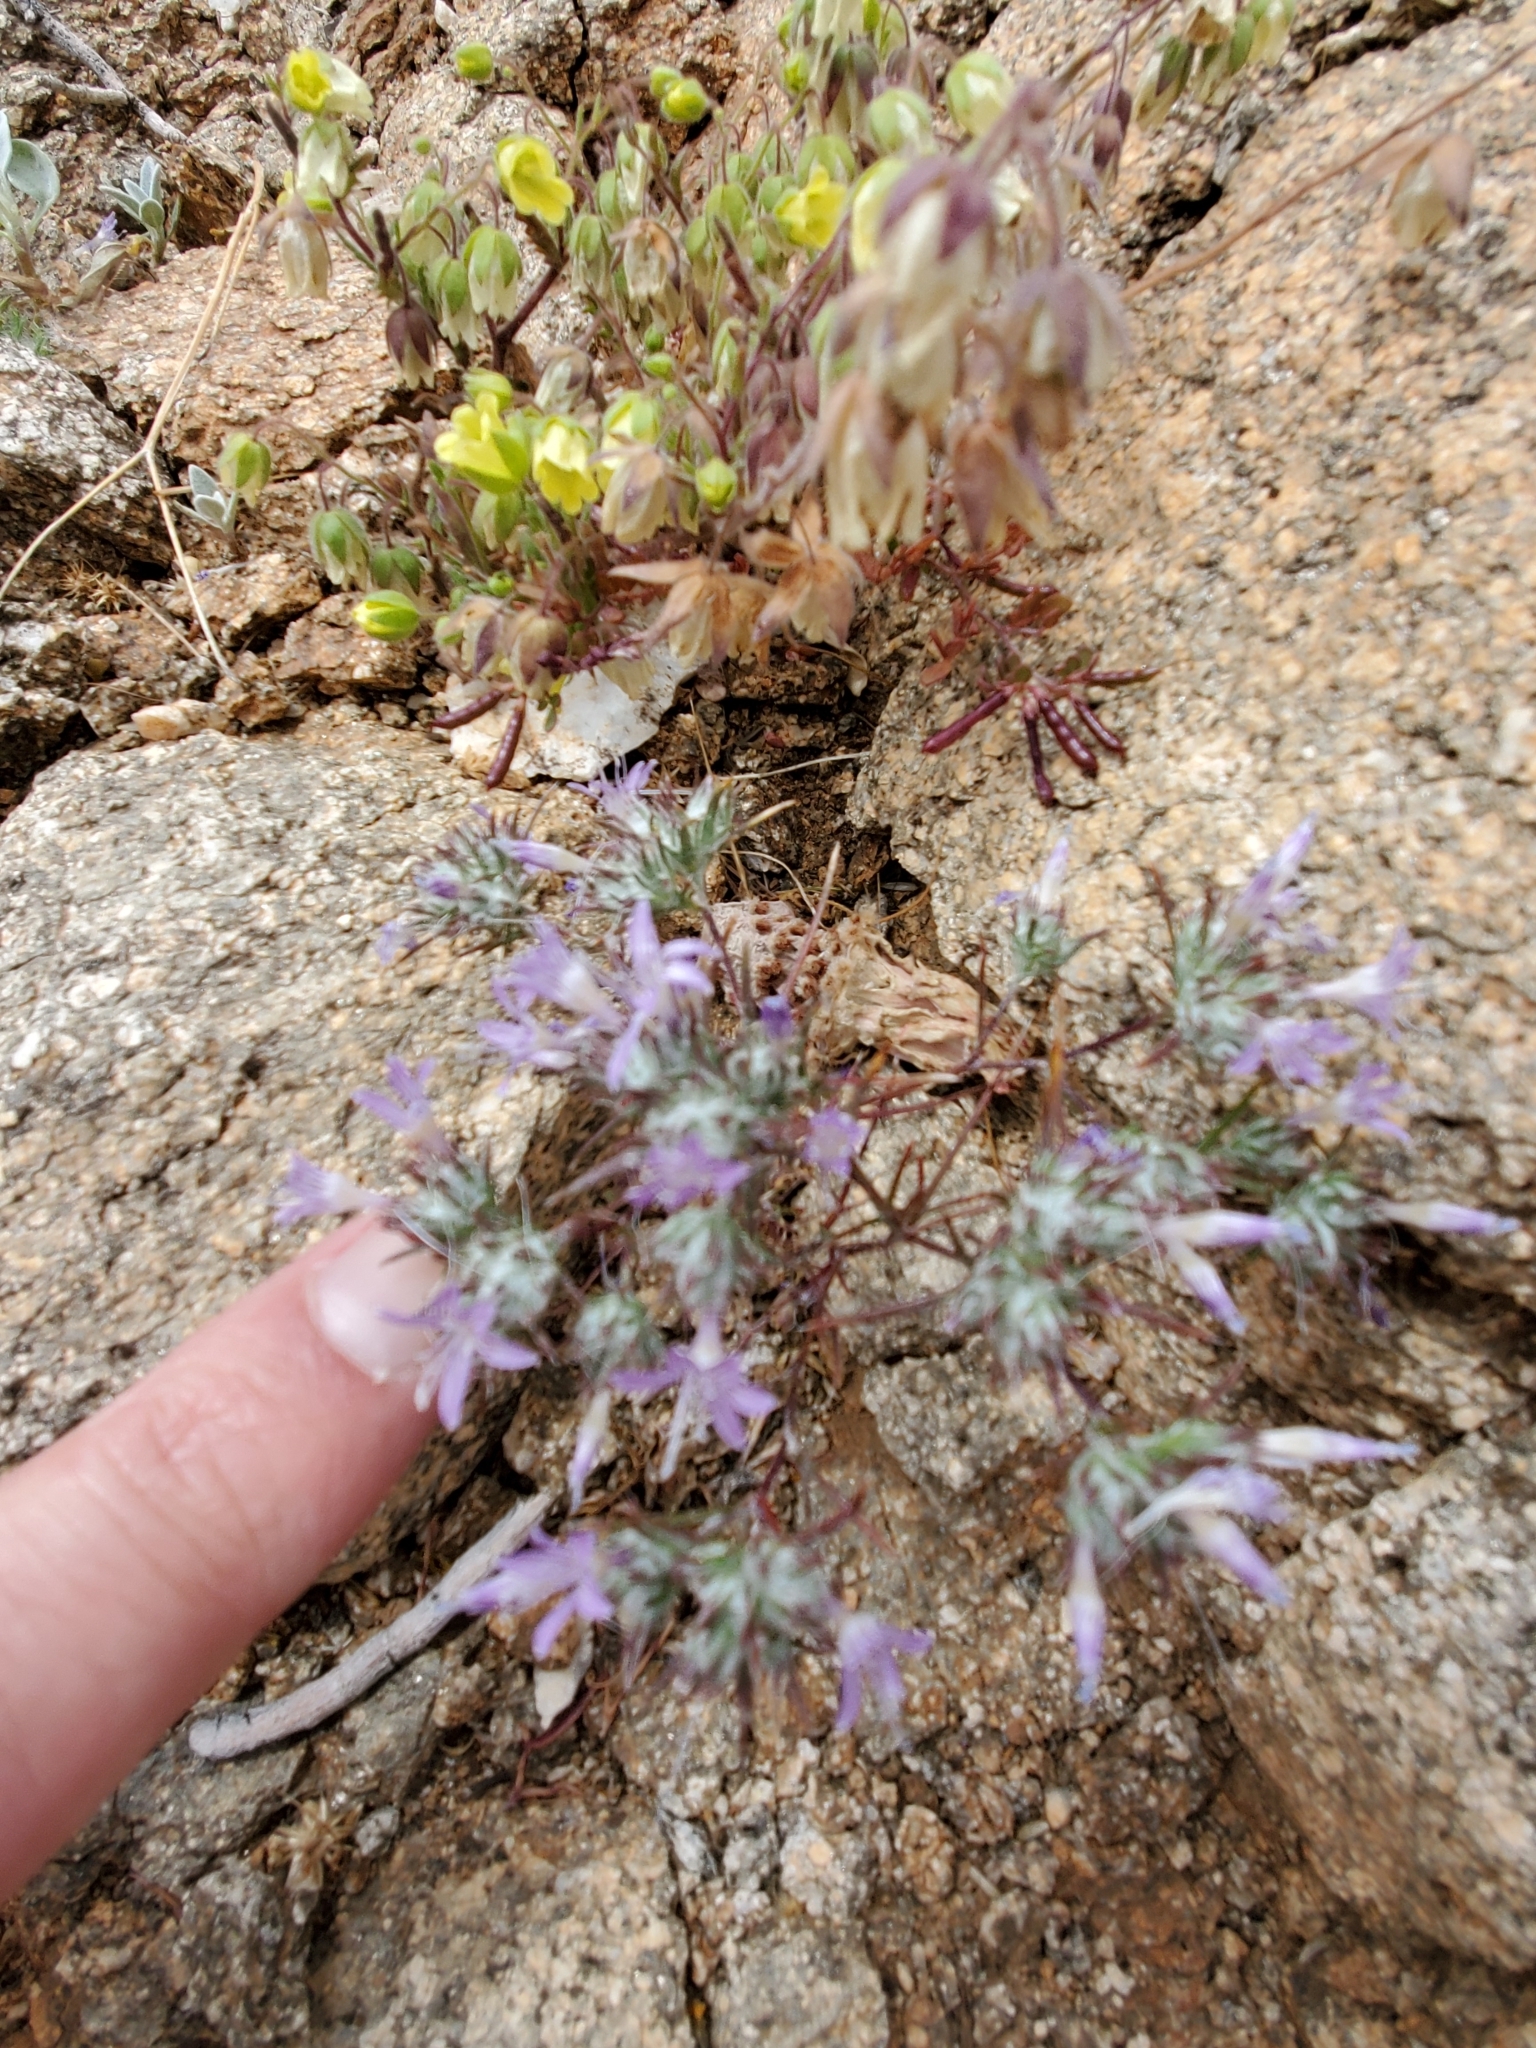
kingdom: Plantae
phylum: Tracheophyta
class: Magnoliopsida
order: Ericales
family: Polemoniaceae
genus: Eriastrum
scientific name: Eriastrum eremicum
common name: Desert eriastrum
